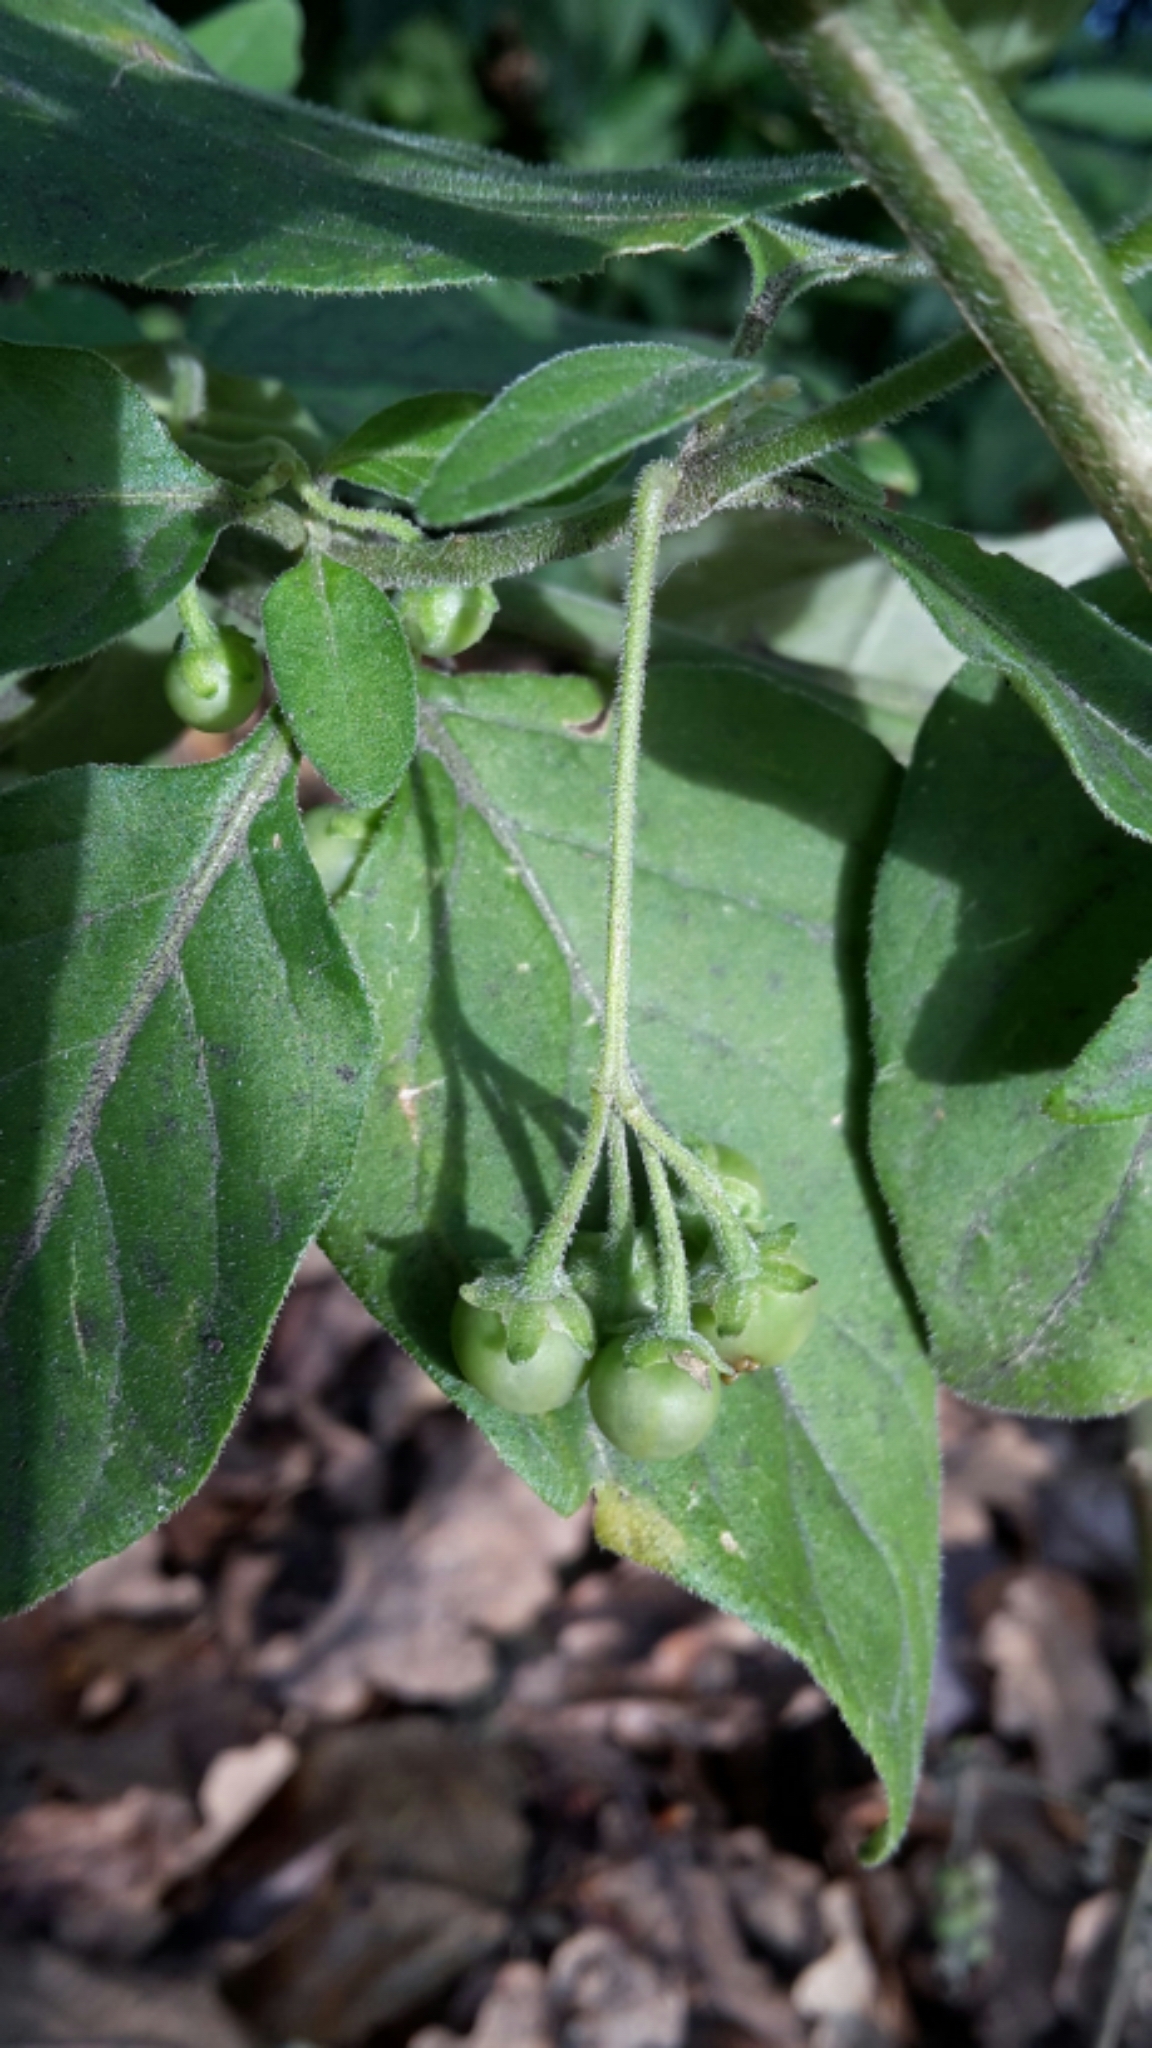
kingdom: Plantae
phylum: Tracheophyta
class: Magnoliopsida
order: Solanales
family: Solanaceae
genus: Solanum
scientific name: Solanum chenopodioides
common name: Tall nightshade
